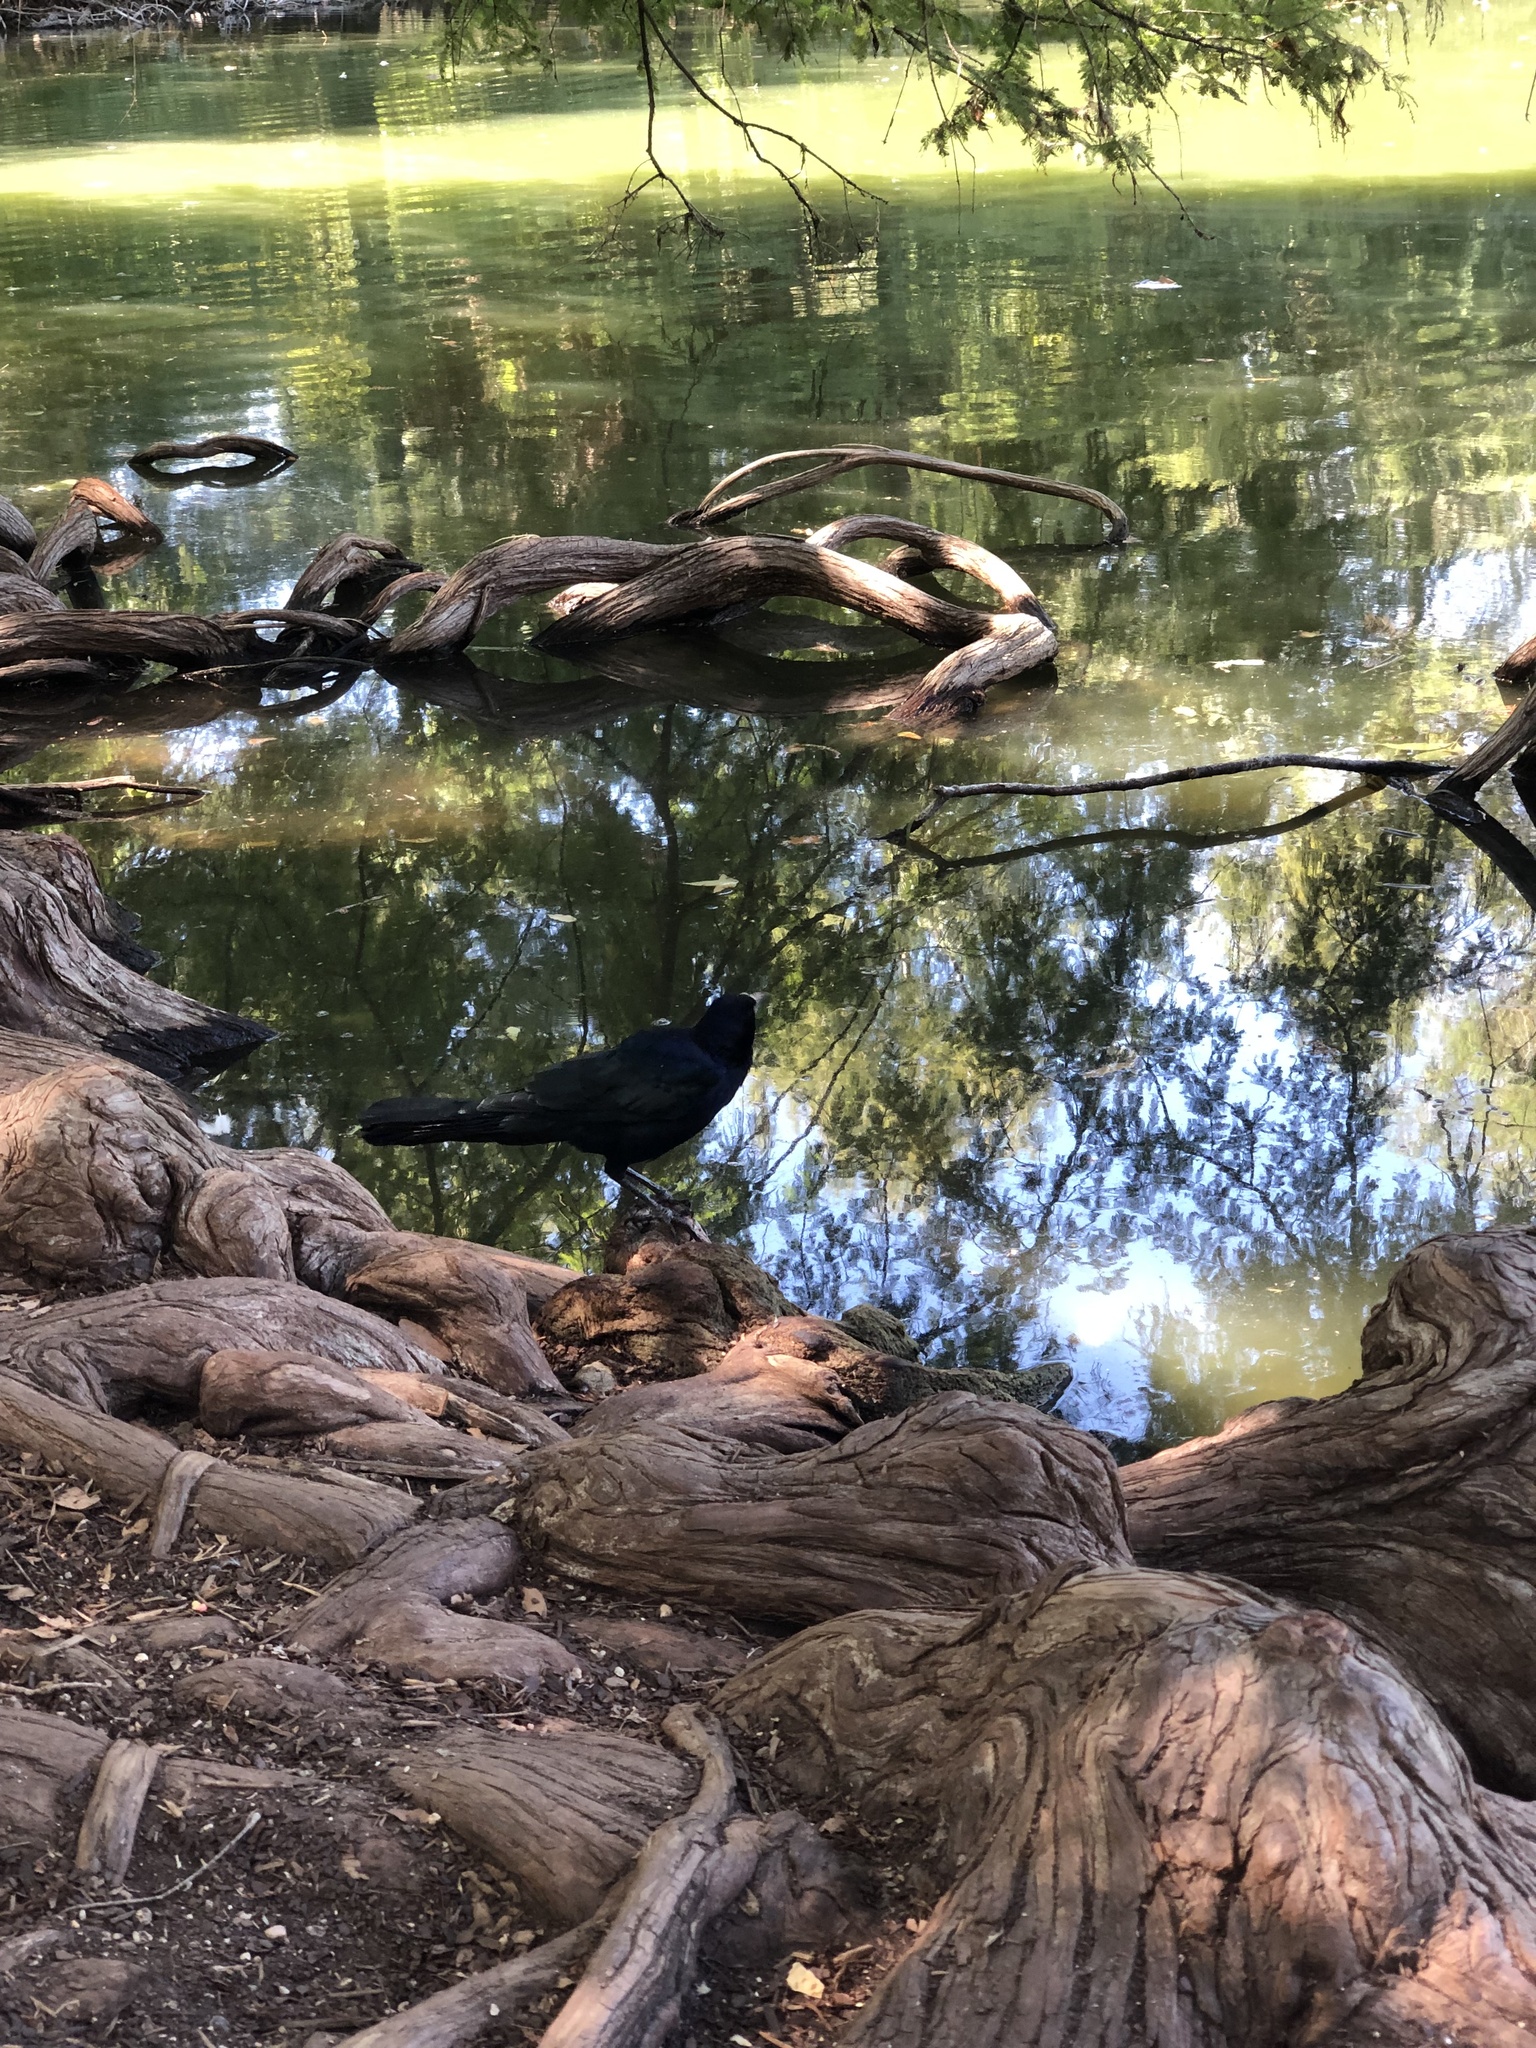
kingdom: Animalia
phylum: Chordata
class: Aves
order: Passeriformes
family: Icteridae
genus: Quiscalus
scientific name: Quiscalus mexicanus
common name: Great-tailed grackle
